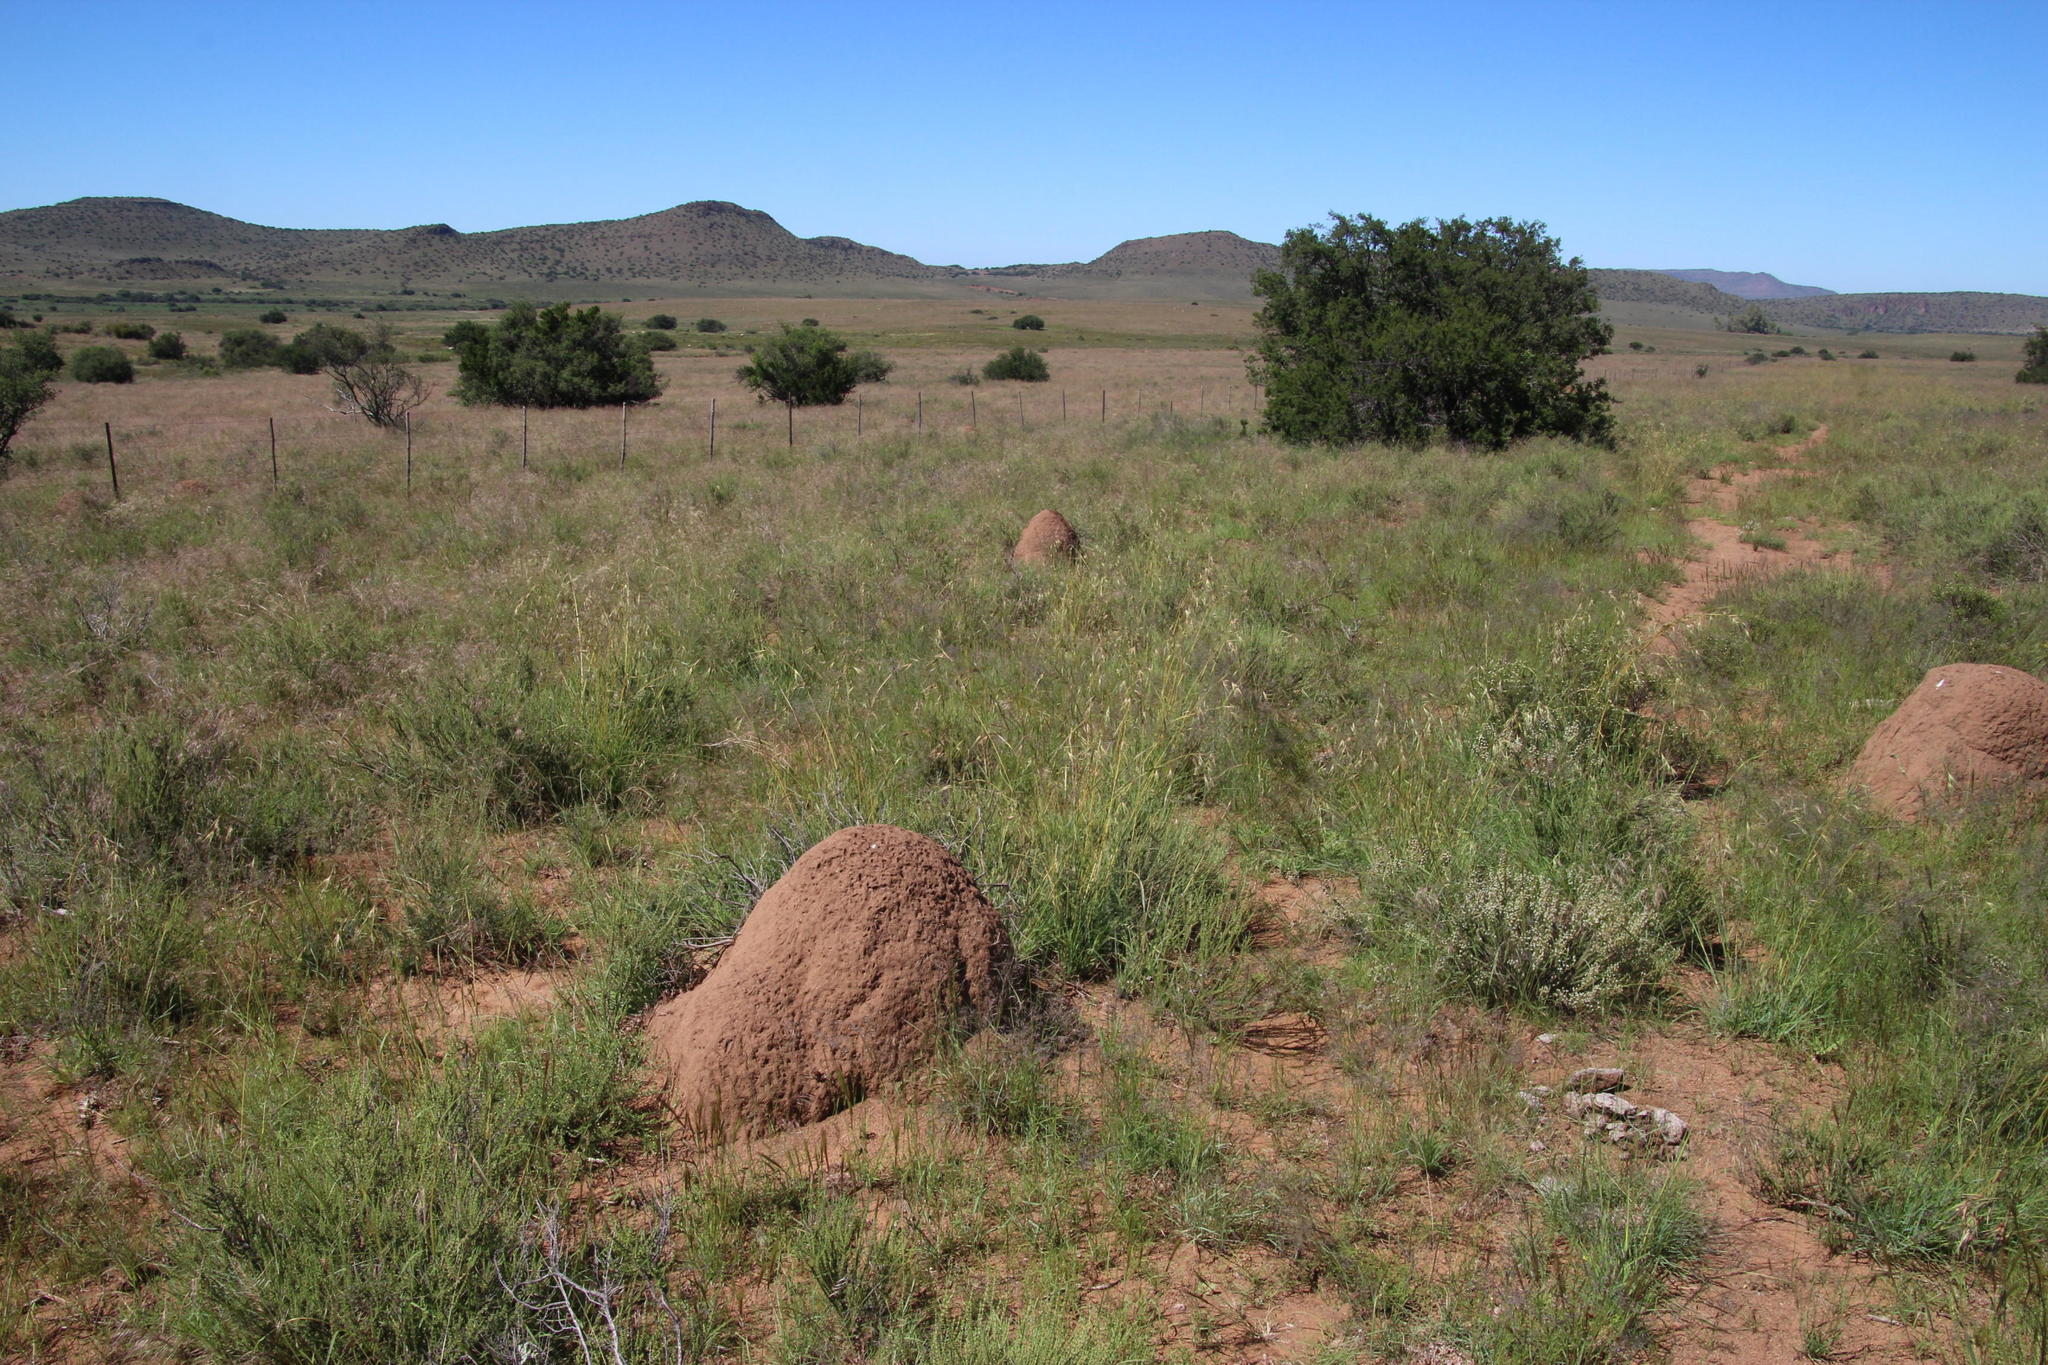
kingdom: Plantae
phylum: Tracheophyta
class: Liliopsida
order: Poales
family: Poaceae
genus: Themeda
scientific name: Themeda triandra
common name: Kangaroo grass
